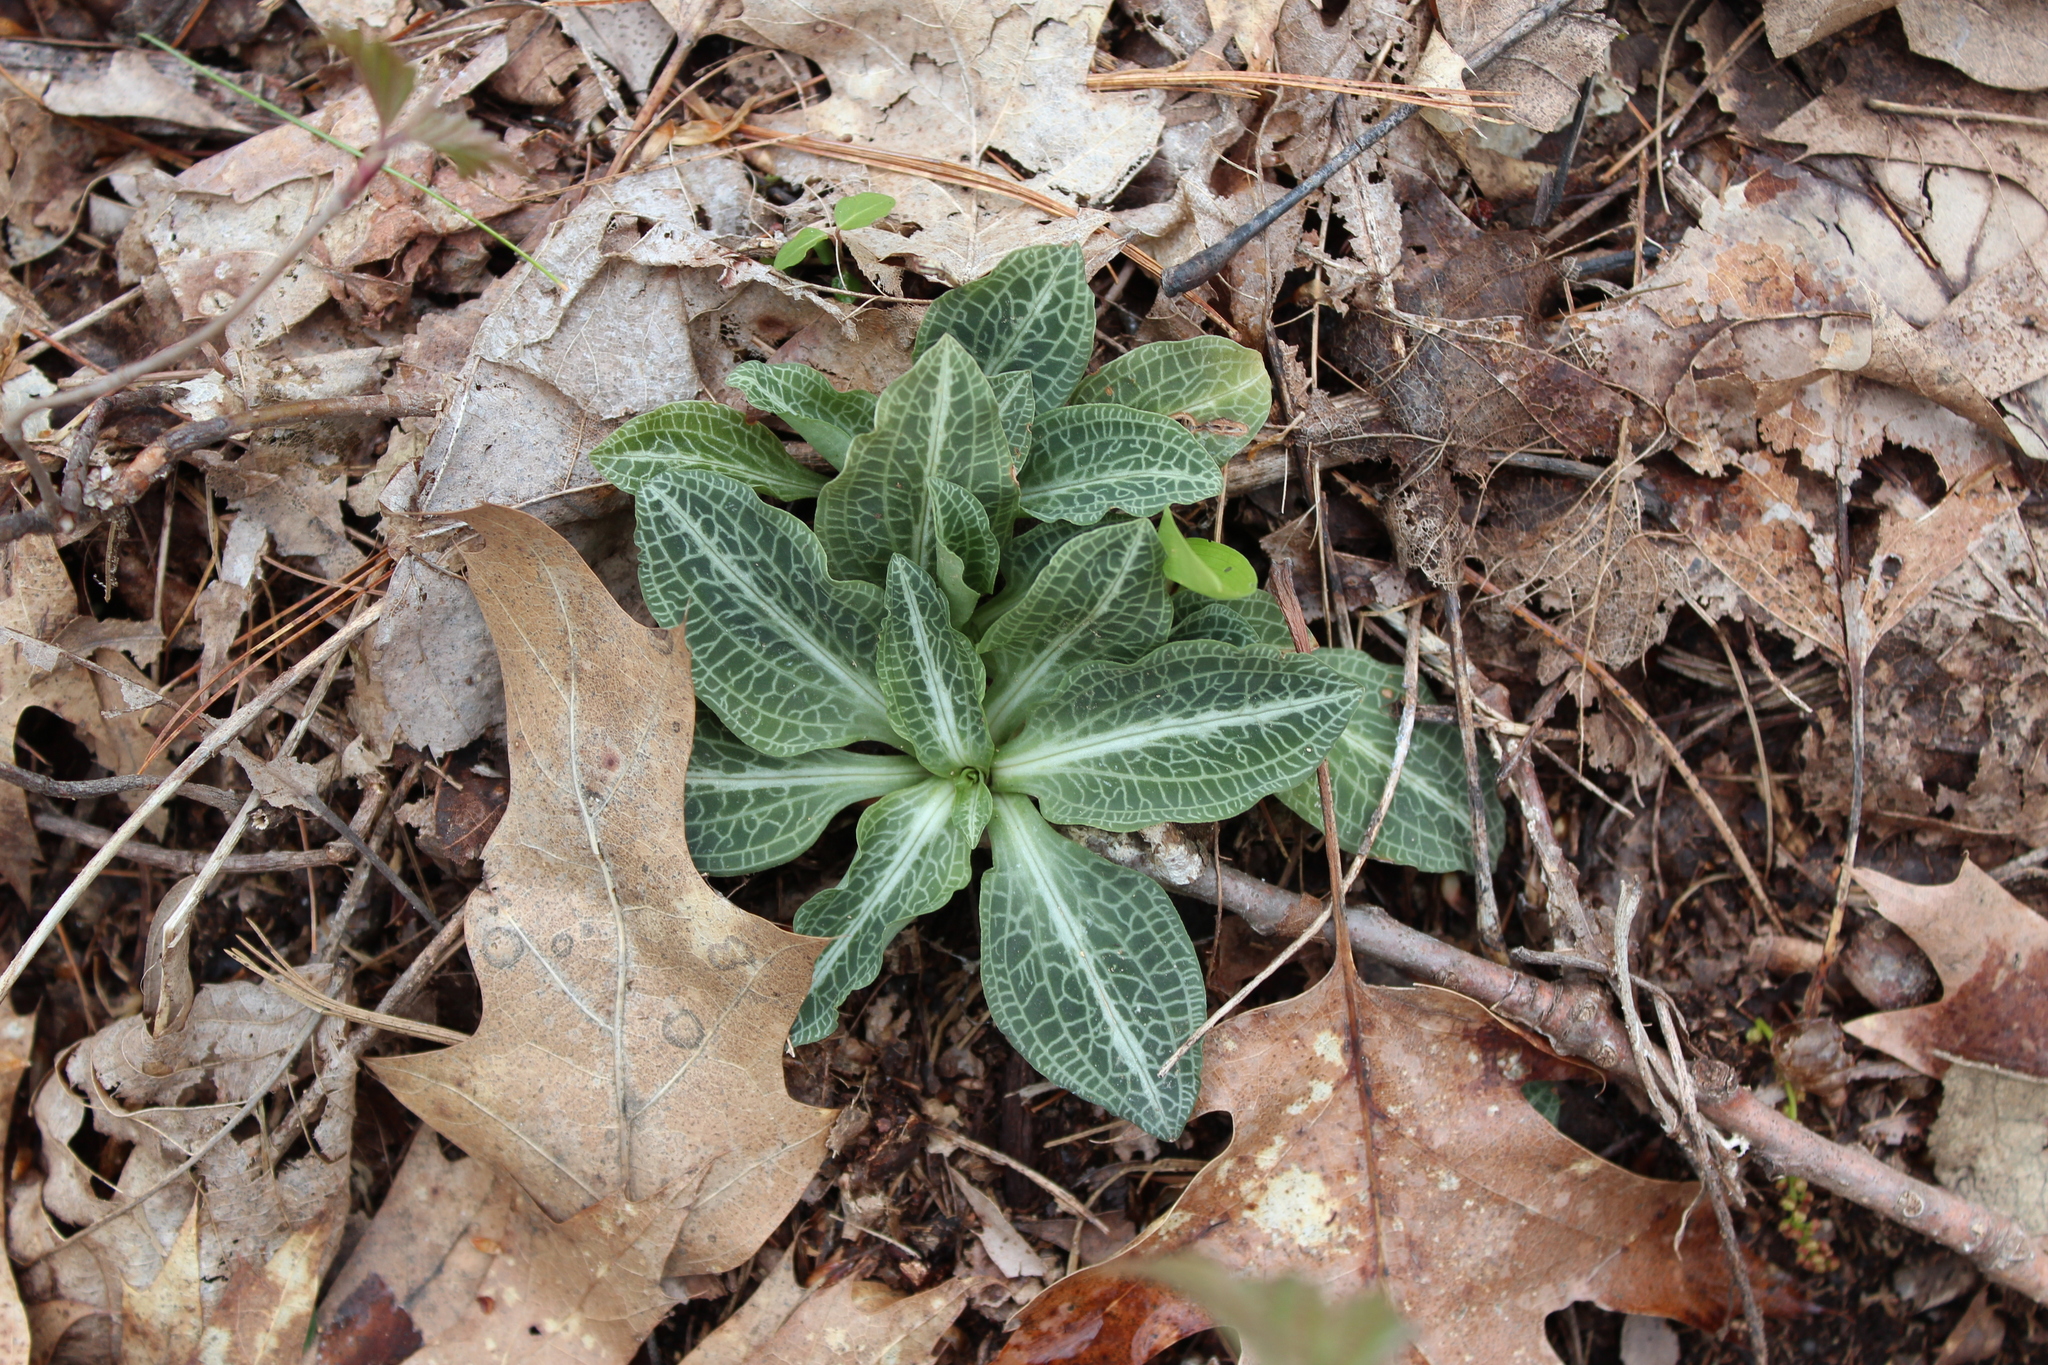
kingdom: Plantae
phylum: Tracheophyta
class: Liliopsida
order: Asparagales
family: Orchidaceae
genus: Goodyera
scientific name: Goodyera pubescens
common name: Downy rattlesnake-plantain
